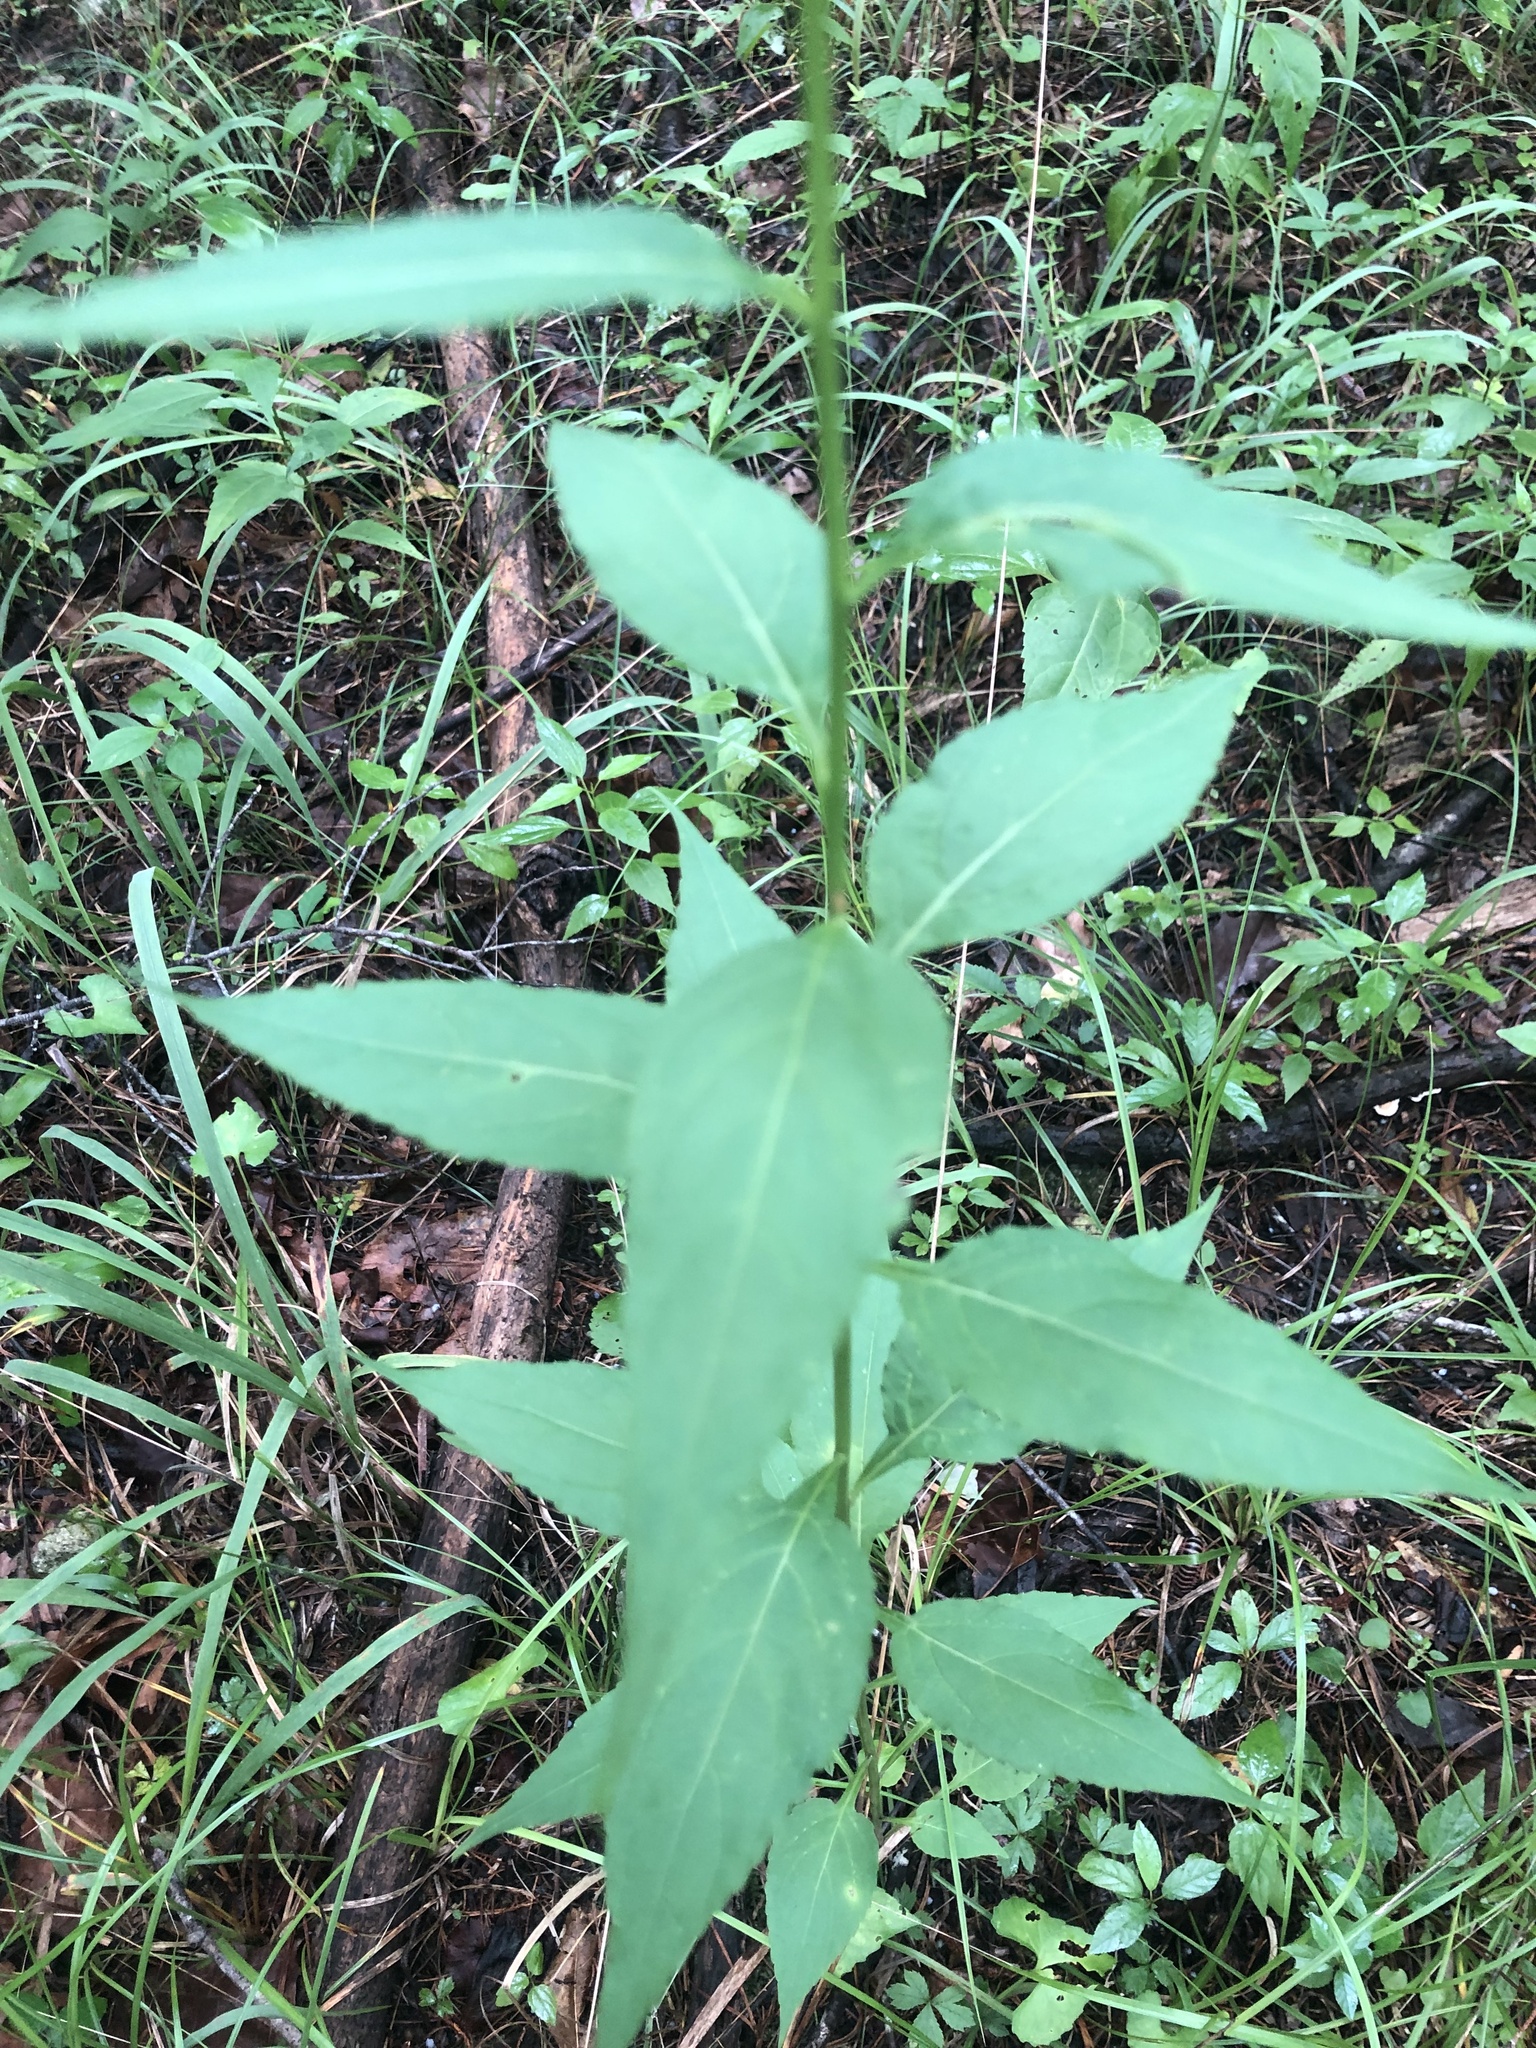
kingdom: Plantae
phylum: Tracheophyta
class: Magnoliopsida
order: Asterales
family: Campanulaceae
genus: Campanulastrum
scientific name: Campanulastrum americanum
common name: American bellflower
